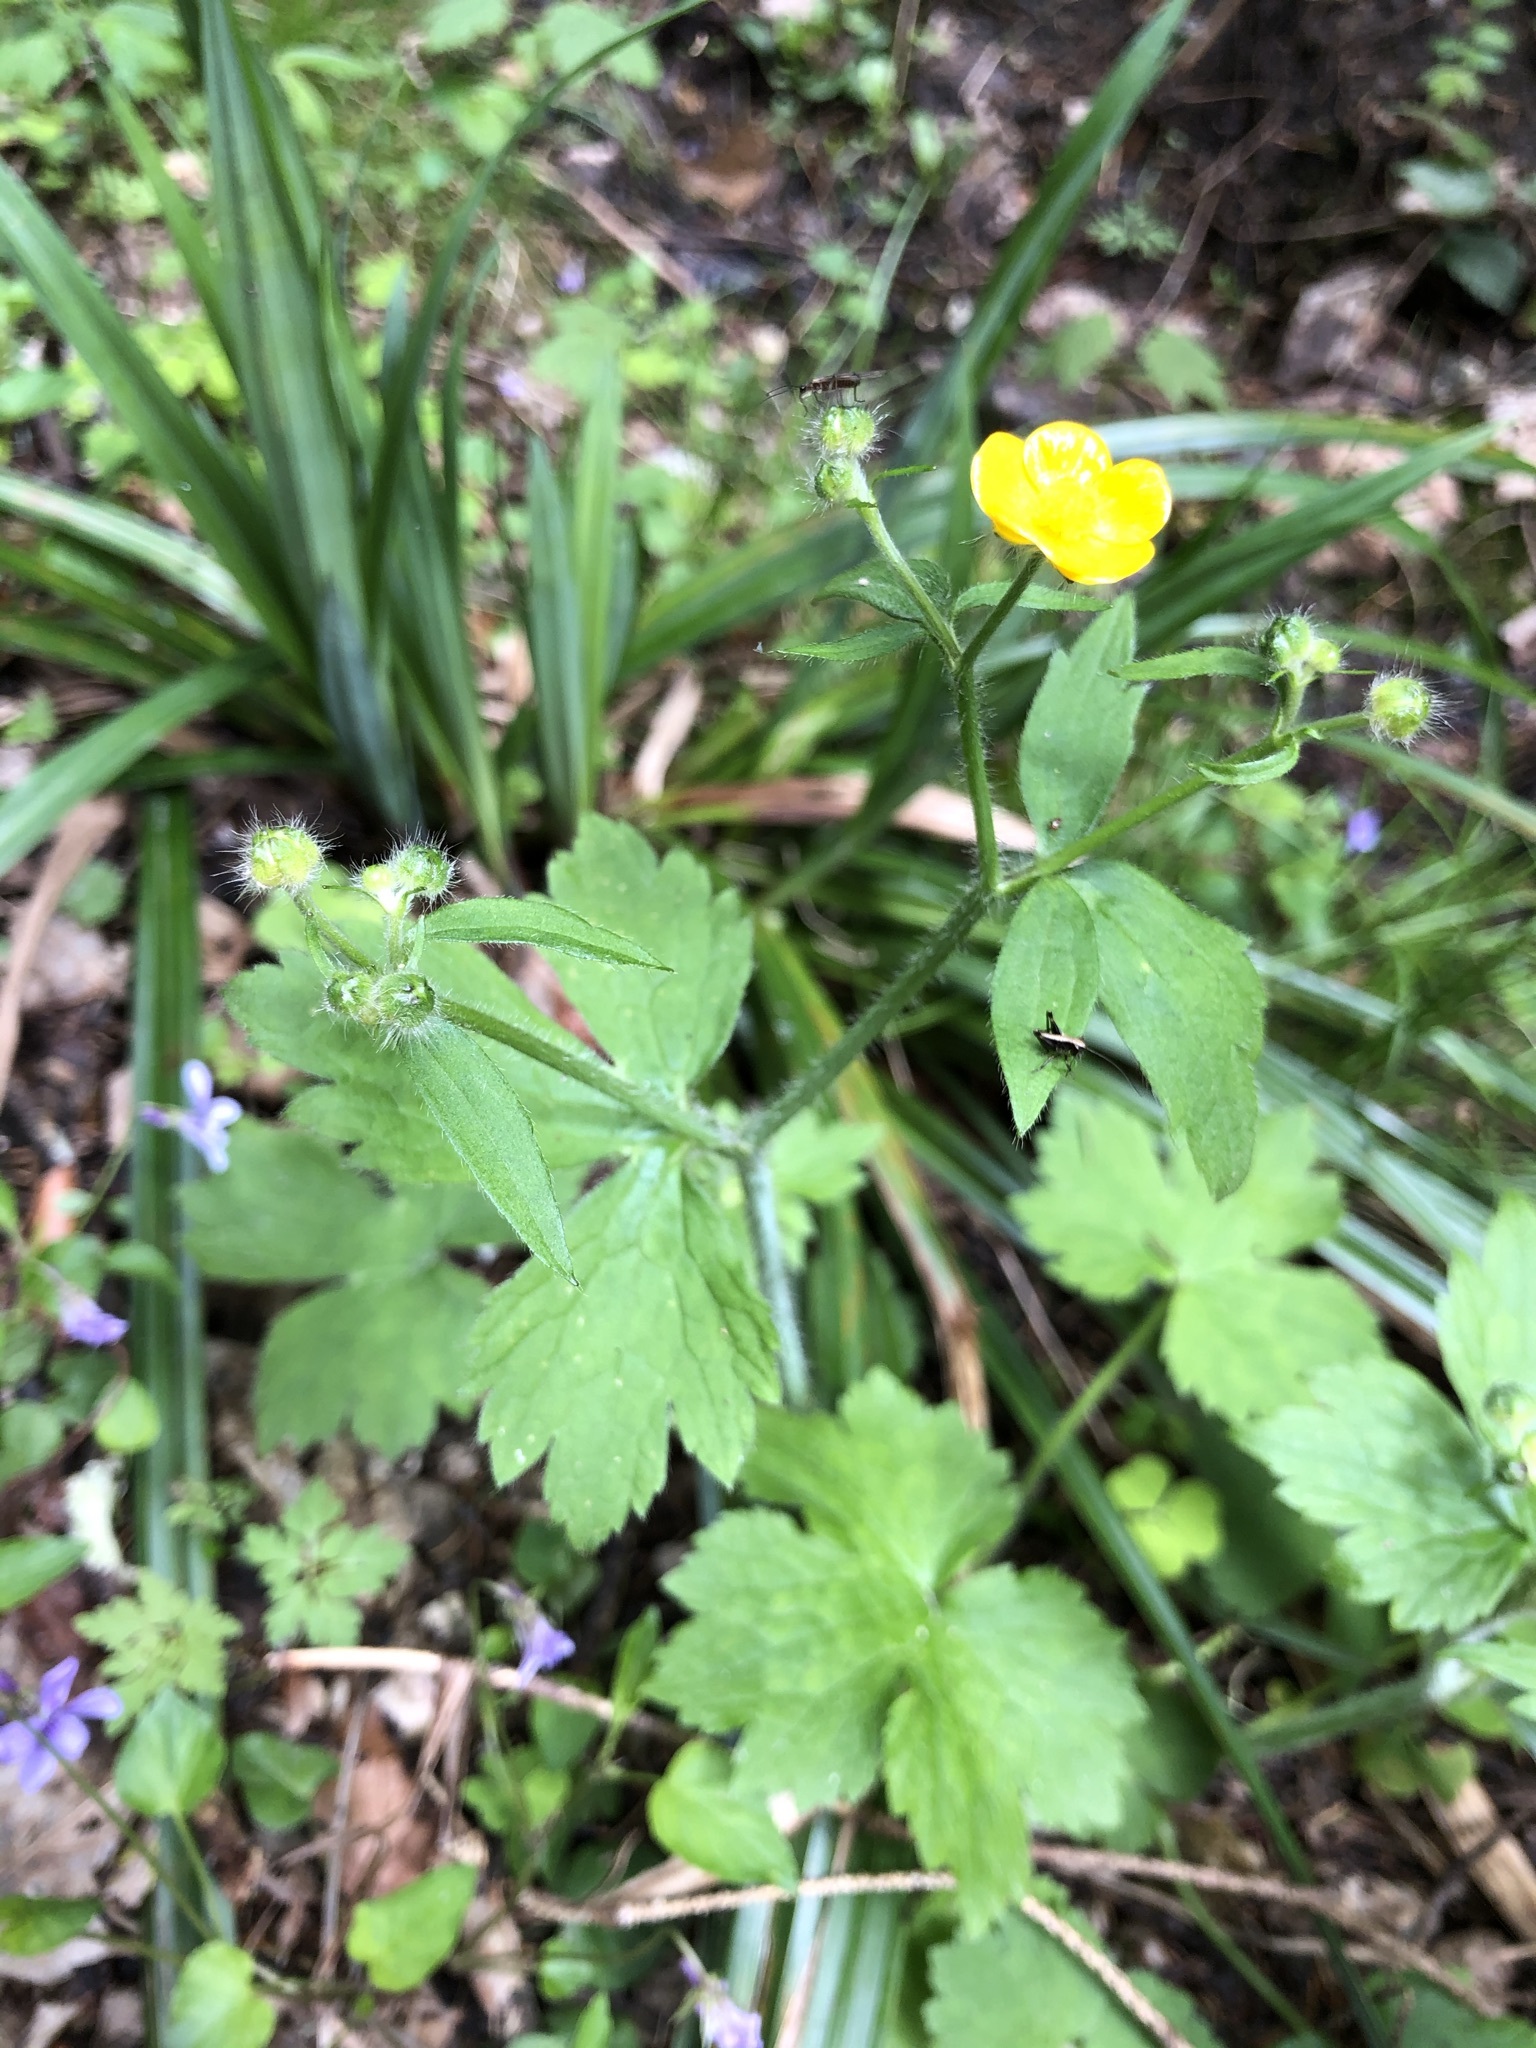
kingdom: Plantae
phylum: Tracheophyta
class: Magnoliopsida
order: Ranunculales
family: Ranunculaceae
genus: Ranunculus
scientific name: Ranunculus lanuginosus
